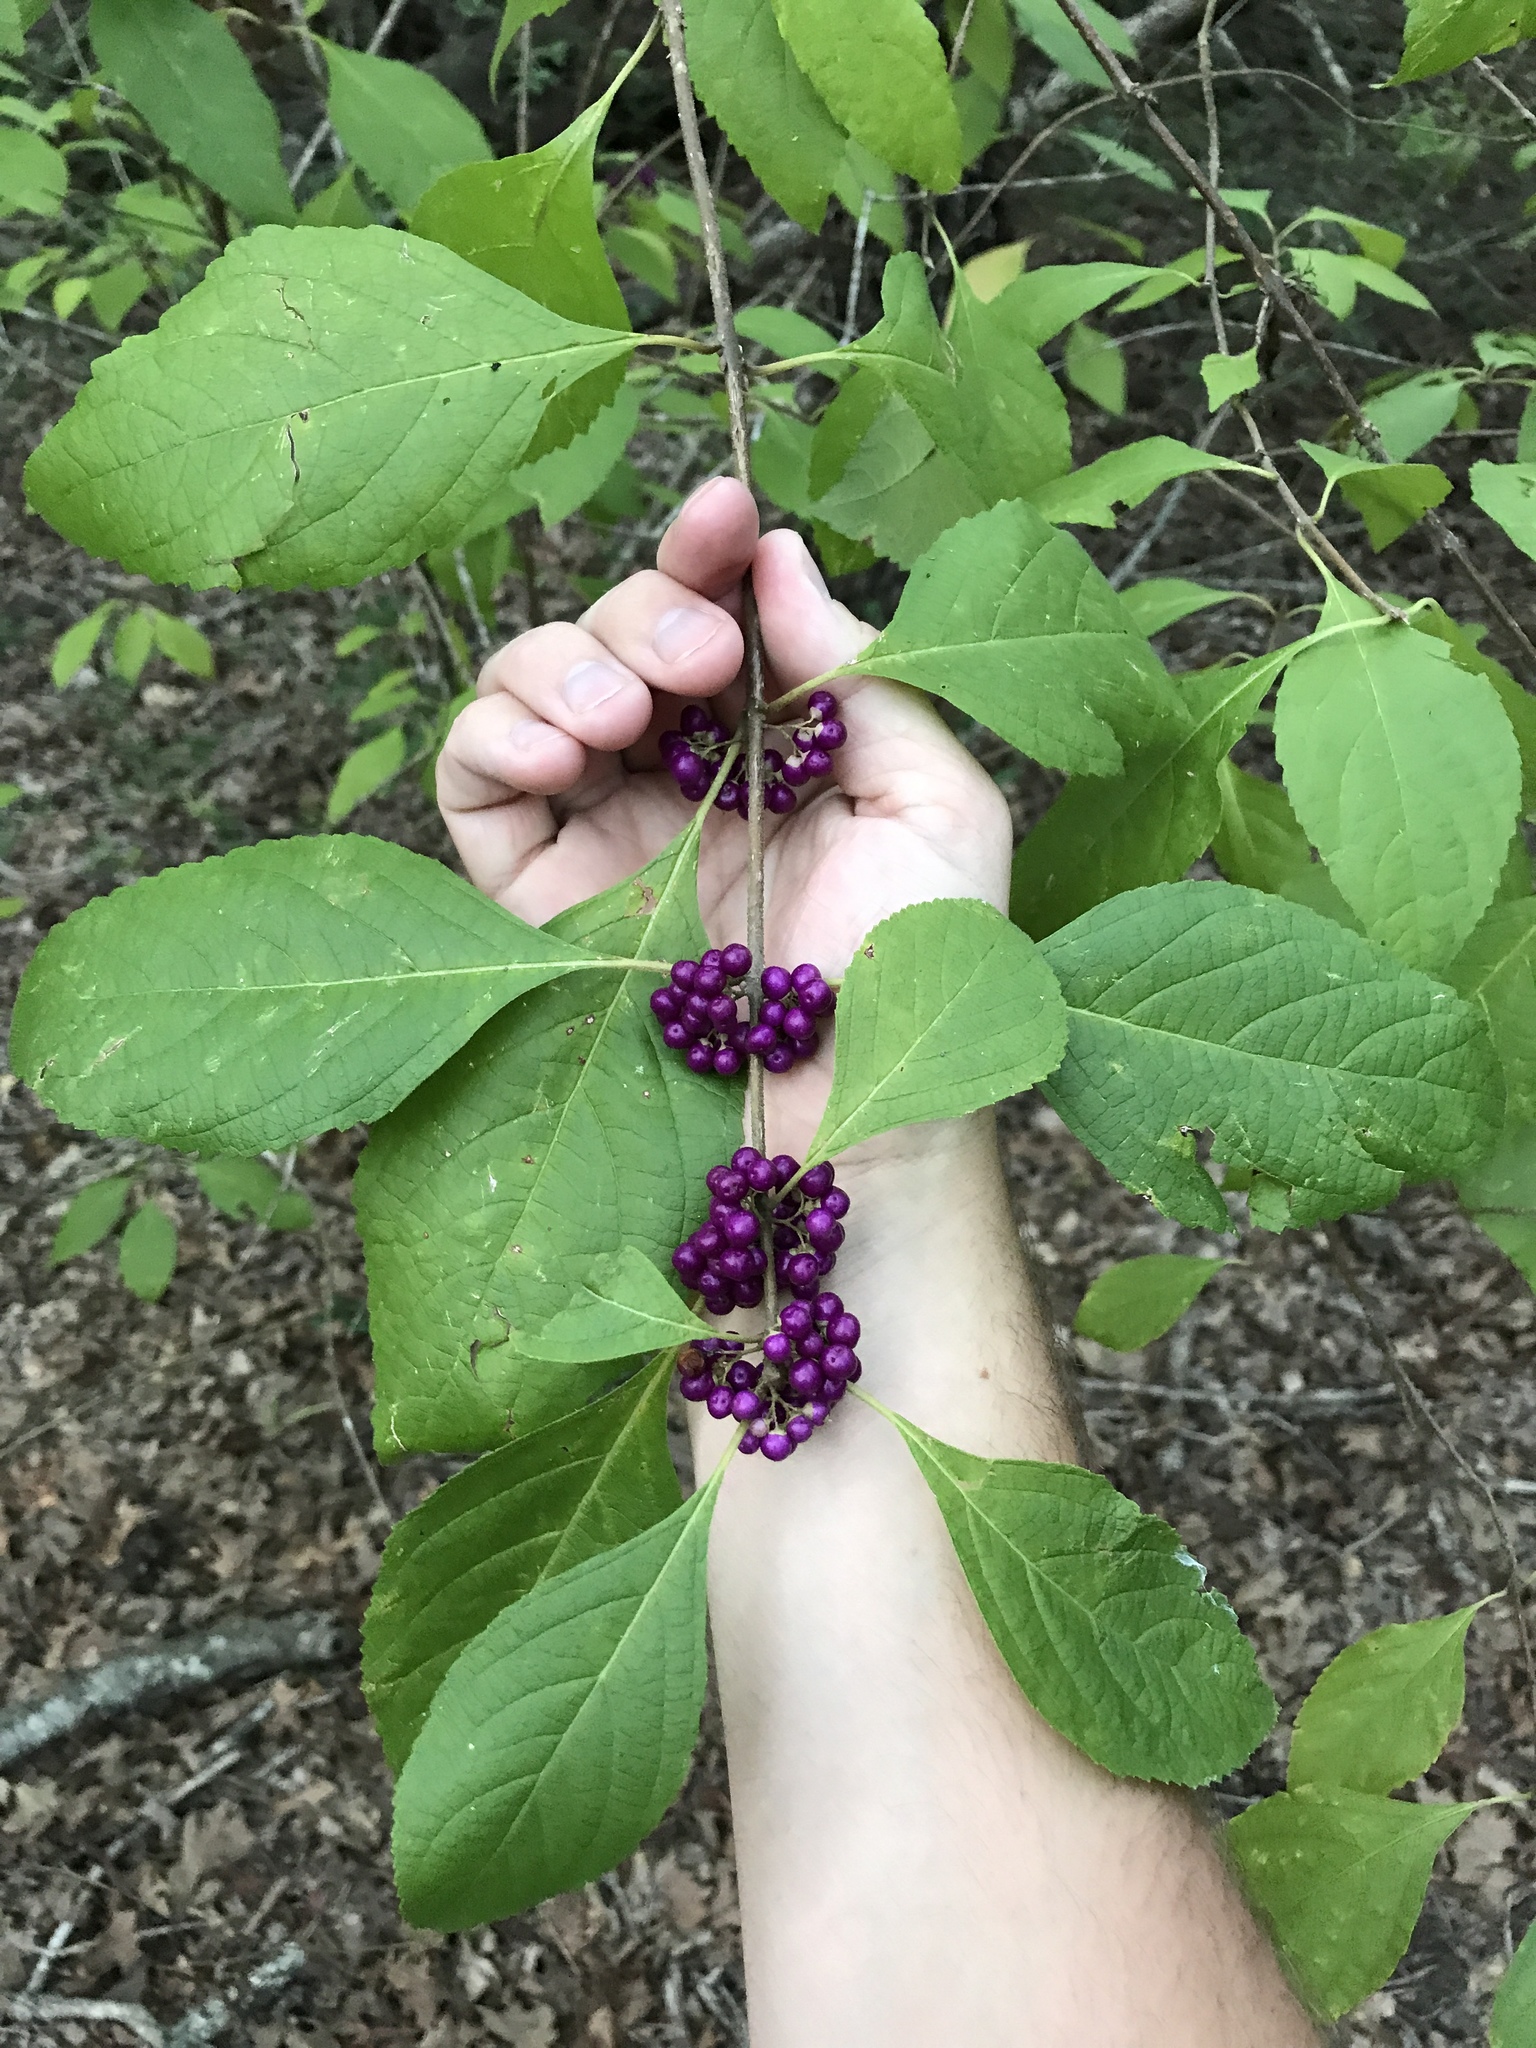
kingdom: Plantae
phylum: Tracheophyta
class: Magnoliopsida
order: Lamiales
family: Lamiaceae
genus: Callicarpa
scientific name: Callicarpa americana
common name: American beautyberry
